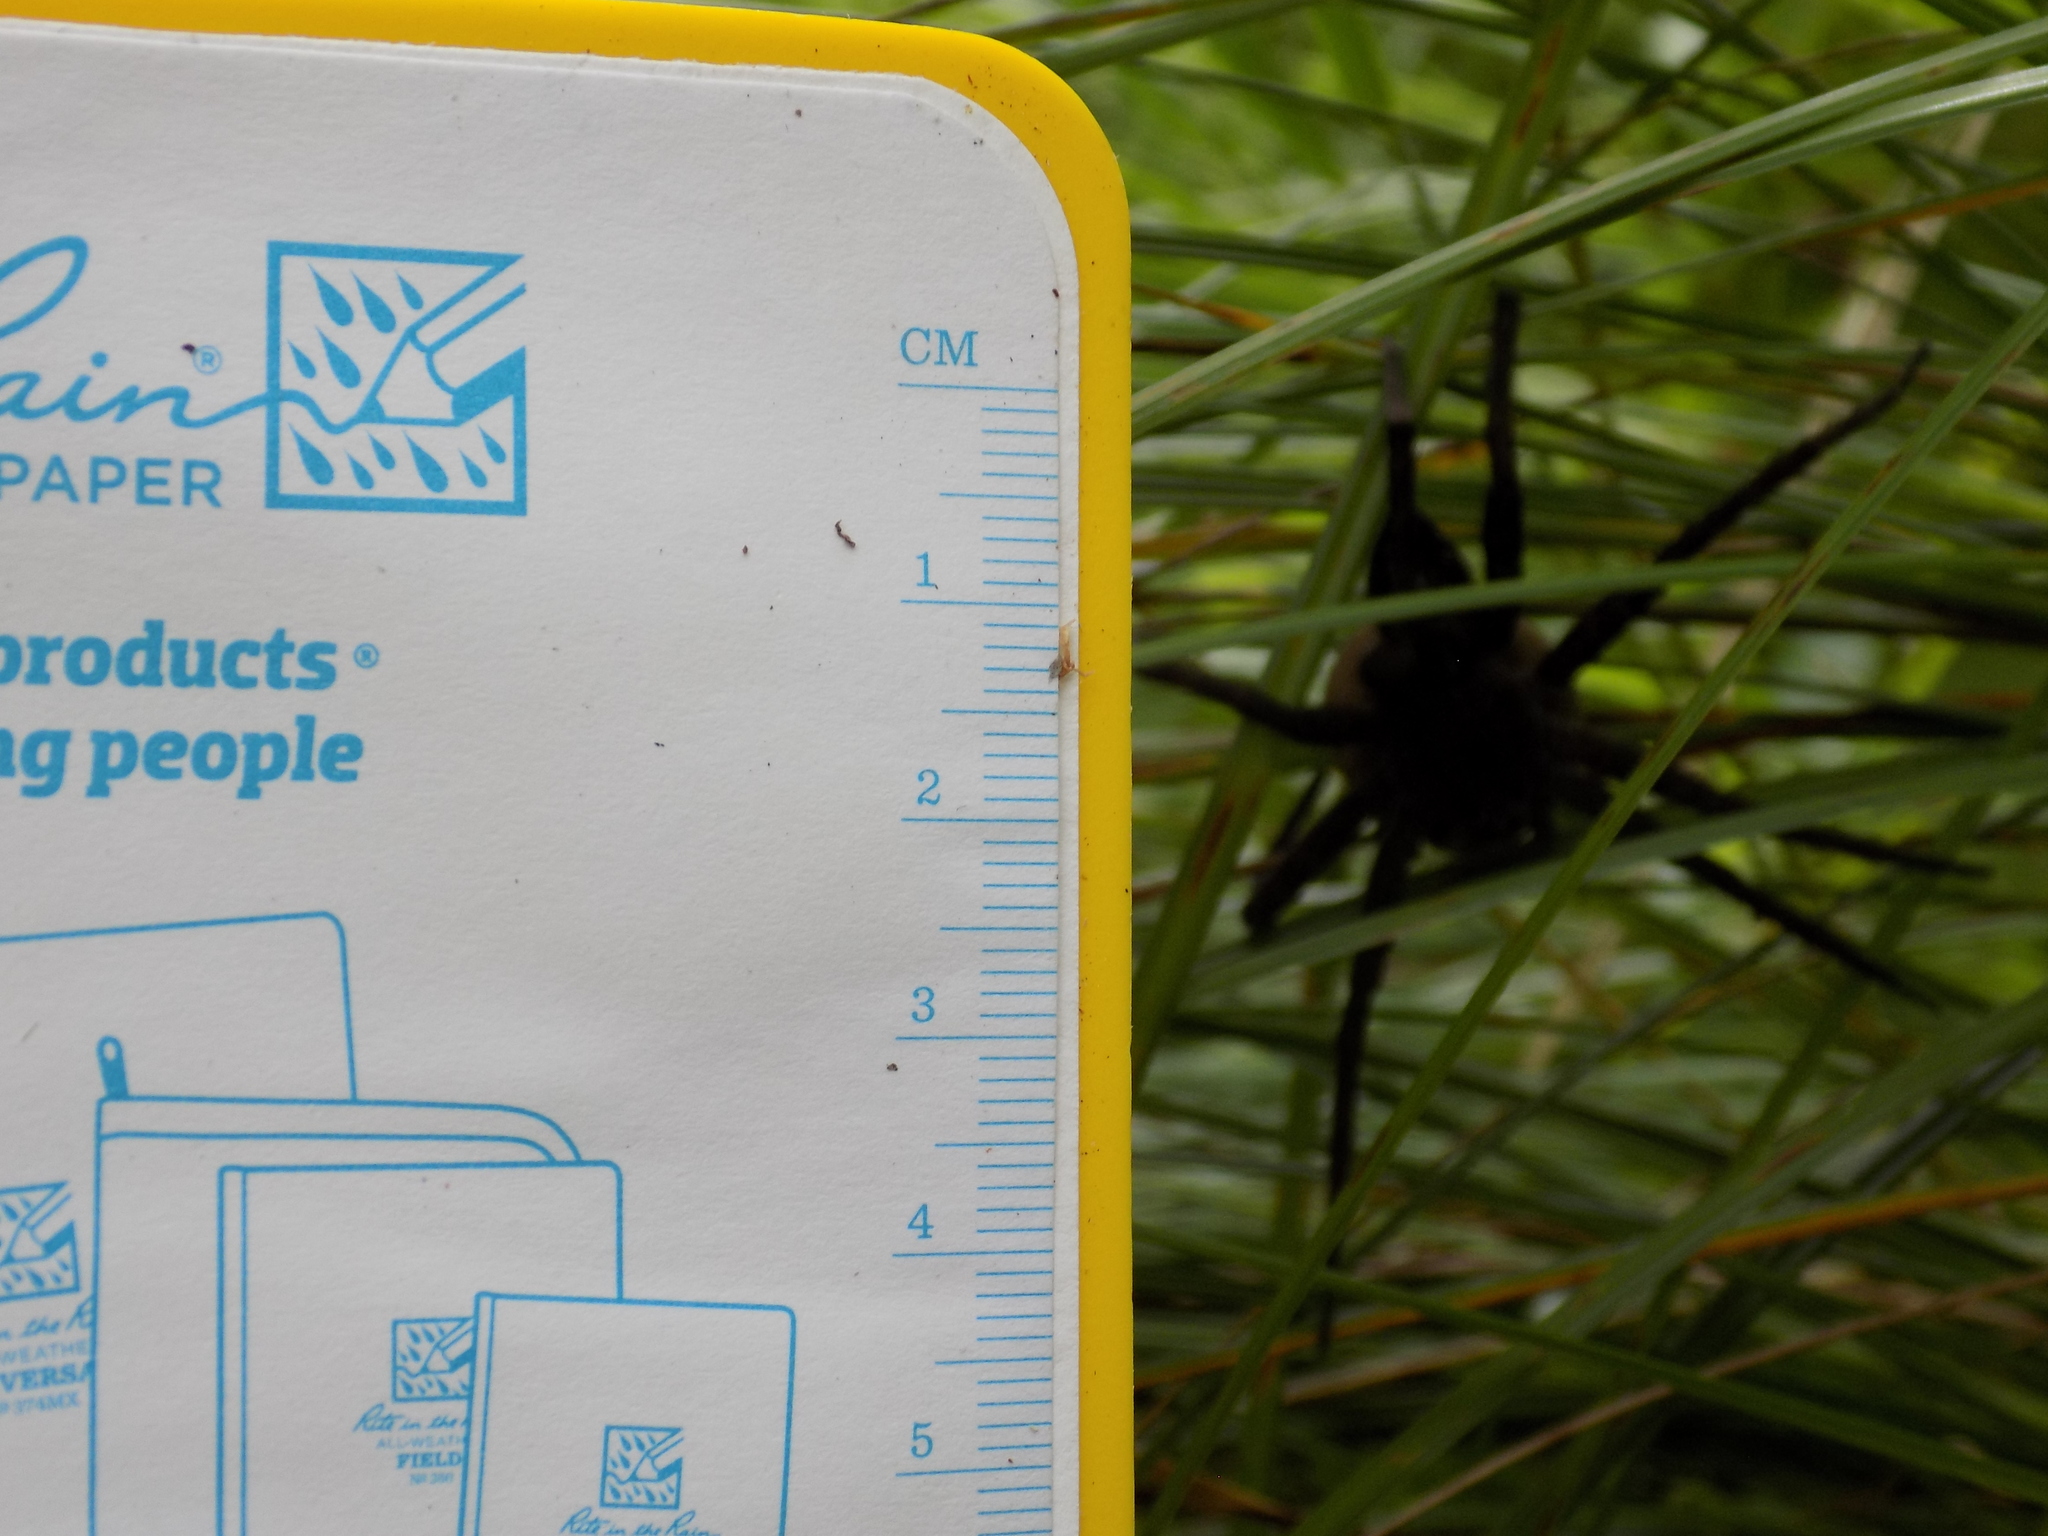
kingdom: Animalia
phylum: Arthropoda
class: Arachnida
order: Araneae
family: Pisauridae
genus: Dolomedes
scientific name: Dolomedes vittatus
